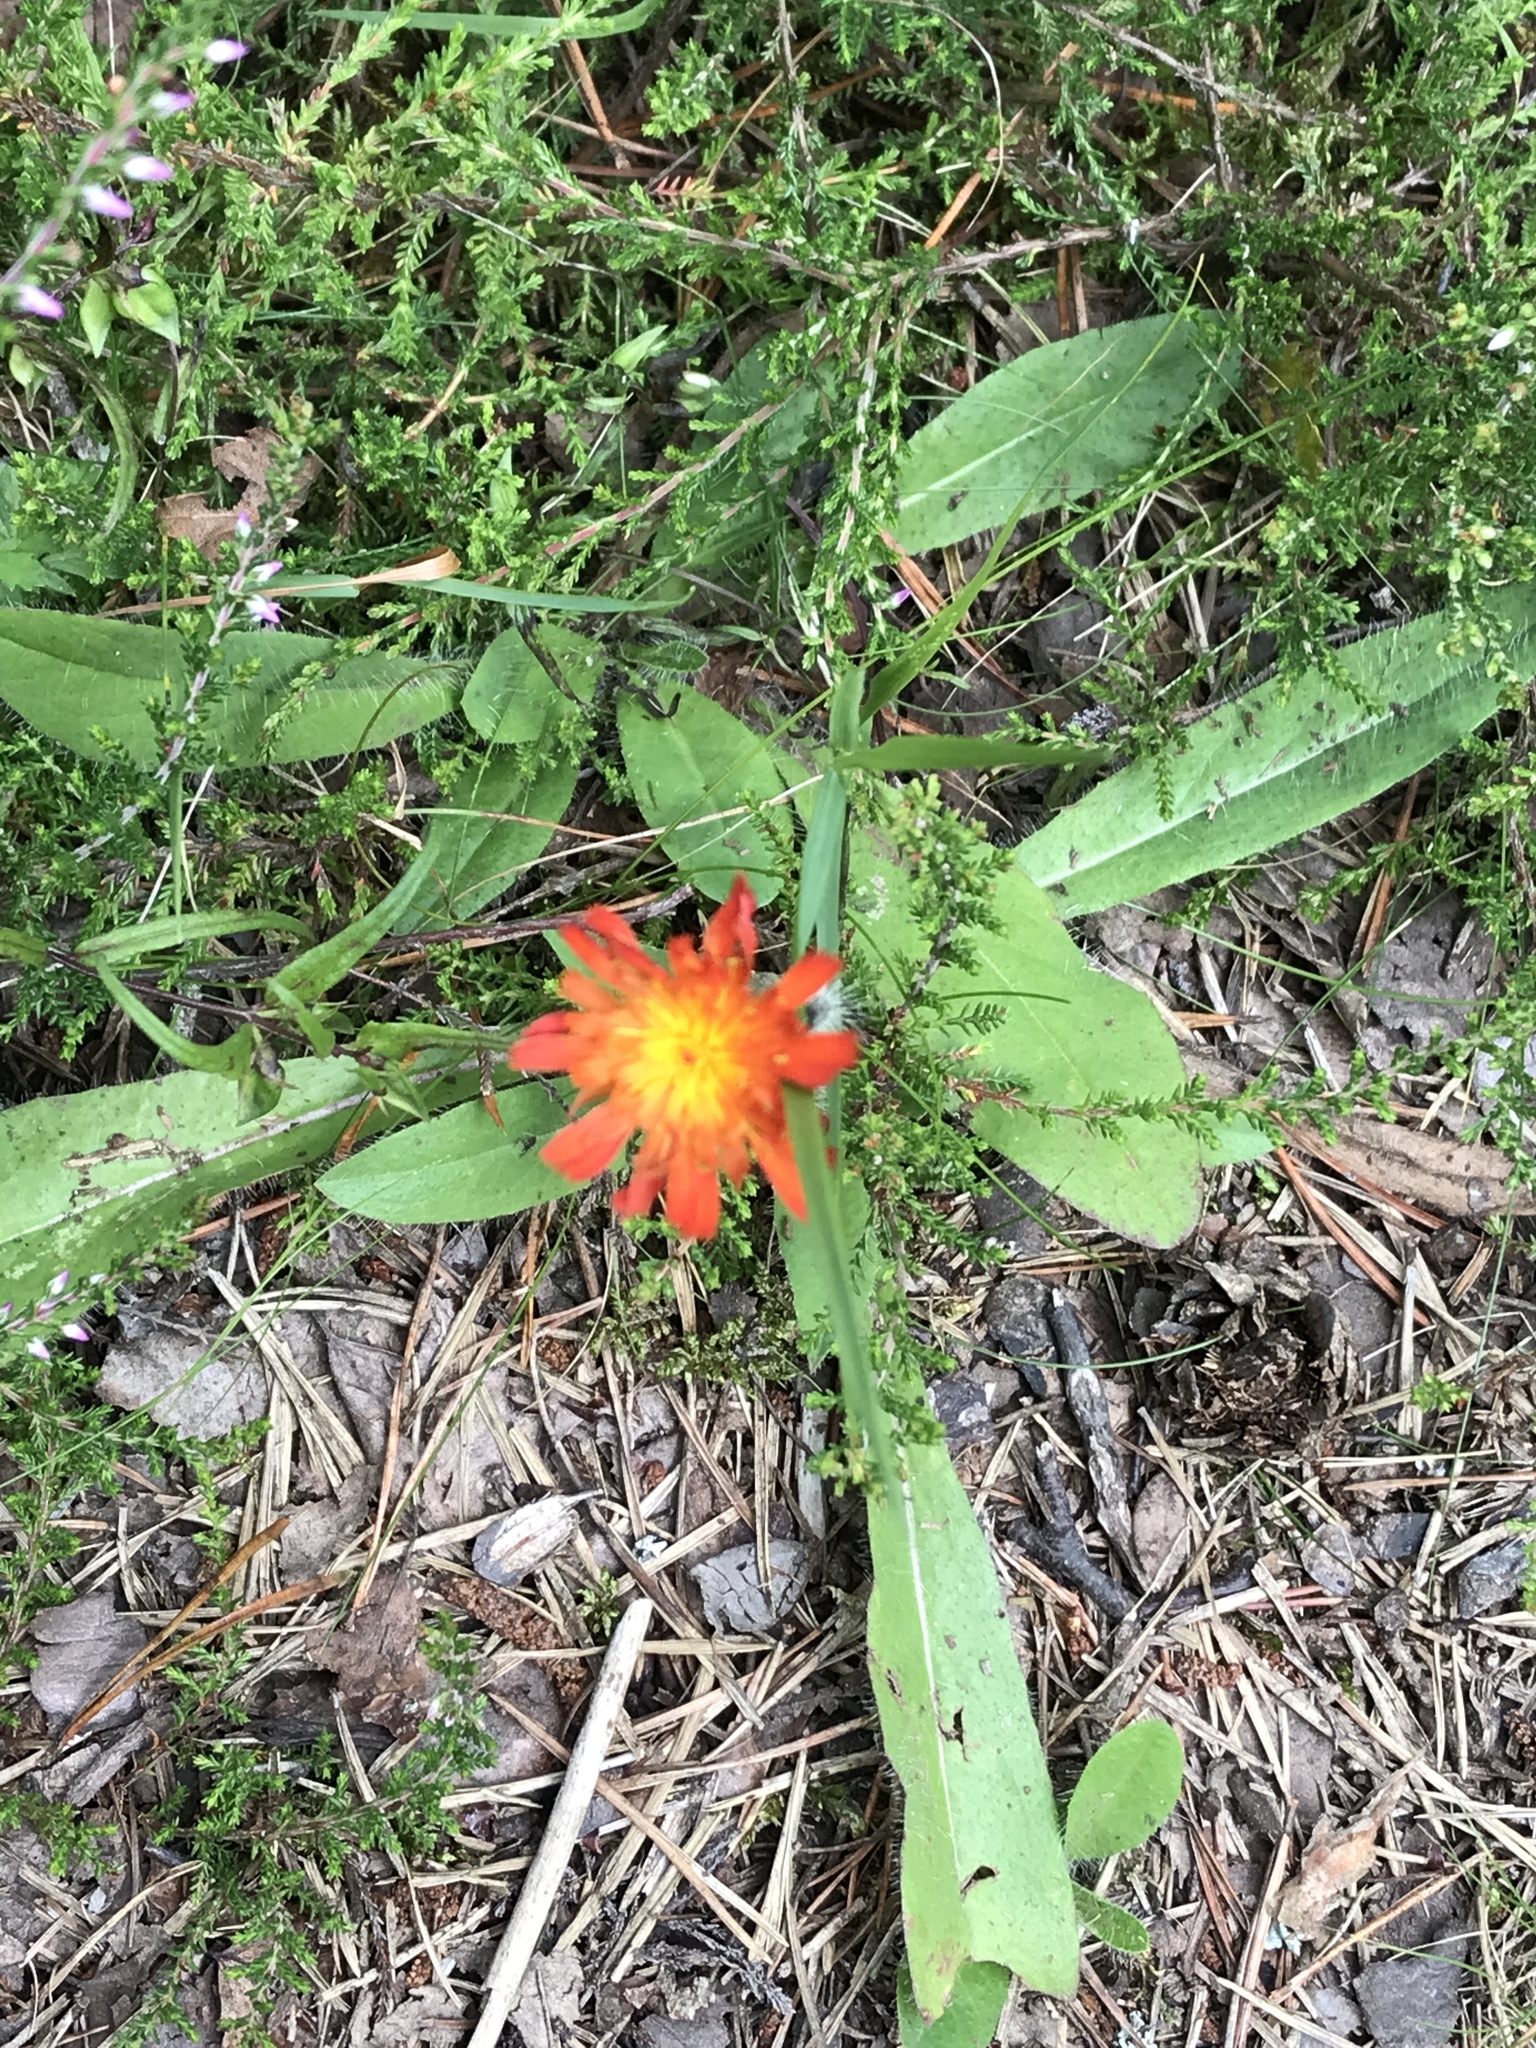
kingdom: Plantae
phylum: Tracheophyta
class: Magnoliopsida
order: Asterales
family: Asteraceae
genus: Pilosella
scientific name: Pilosella aurantiaca
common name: Fox-and-cubs
